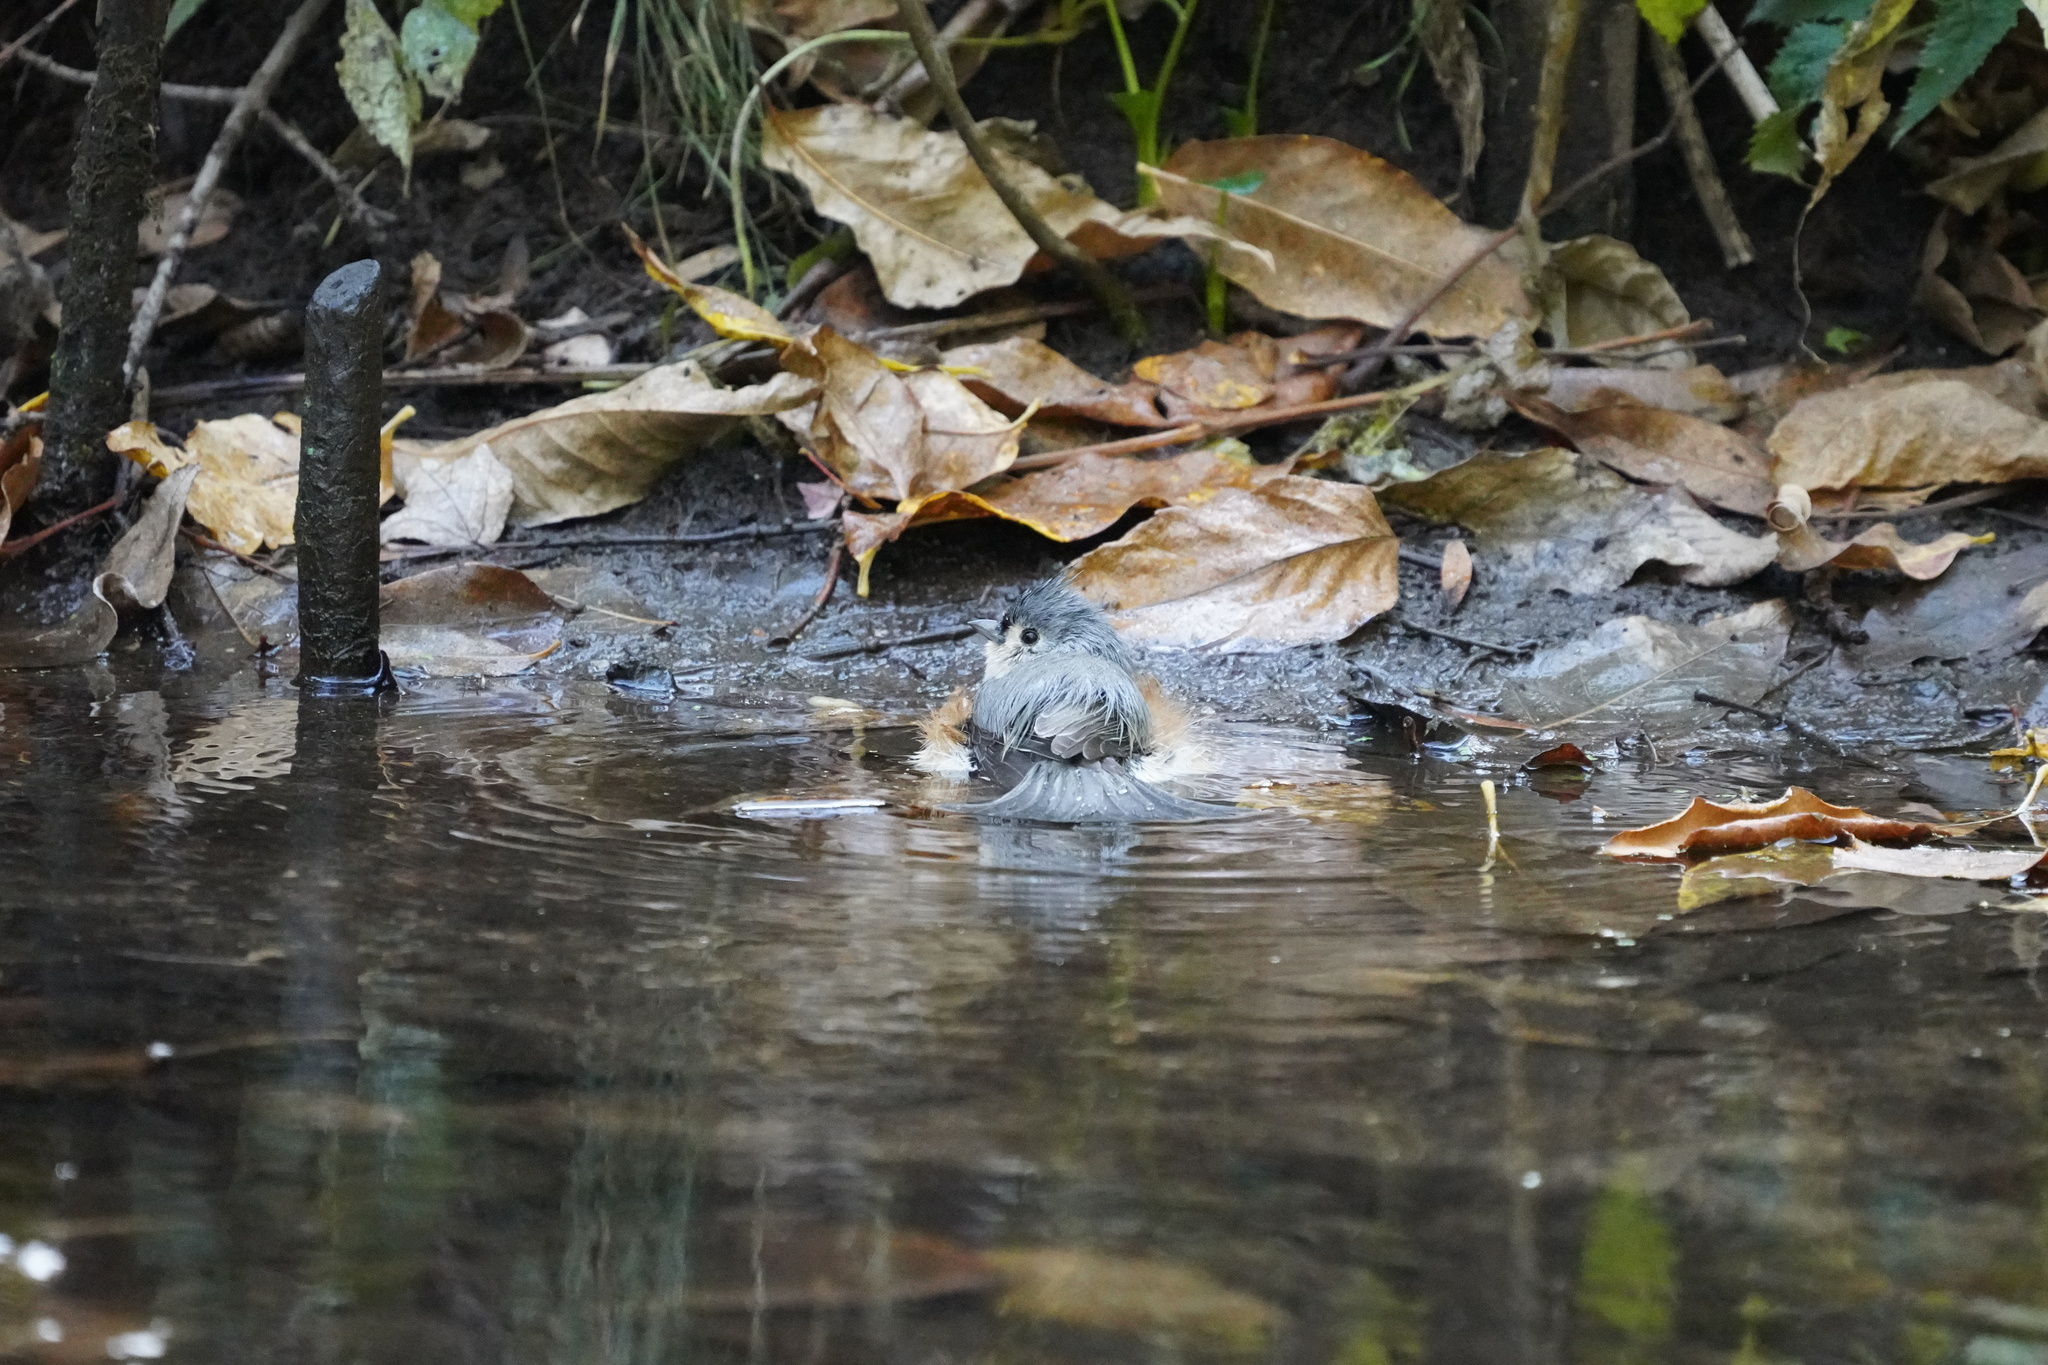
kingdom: Animalia
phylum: Chordata
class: Aves
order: Passeriformes
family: Paridae
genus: Baeolophus
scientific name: Baeolophus bicolor
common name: Tufted titmouse
